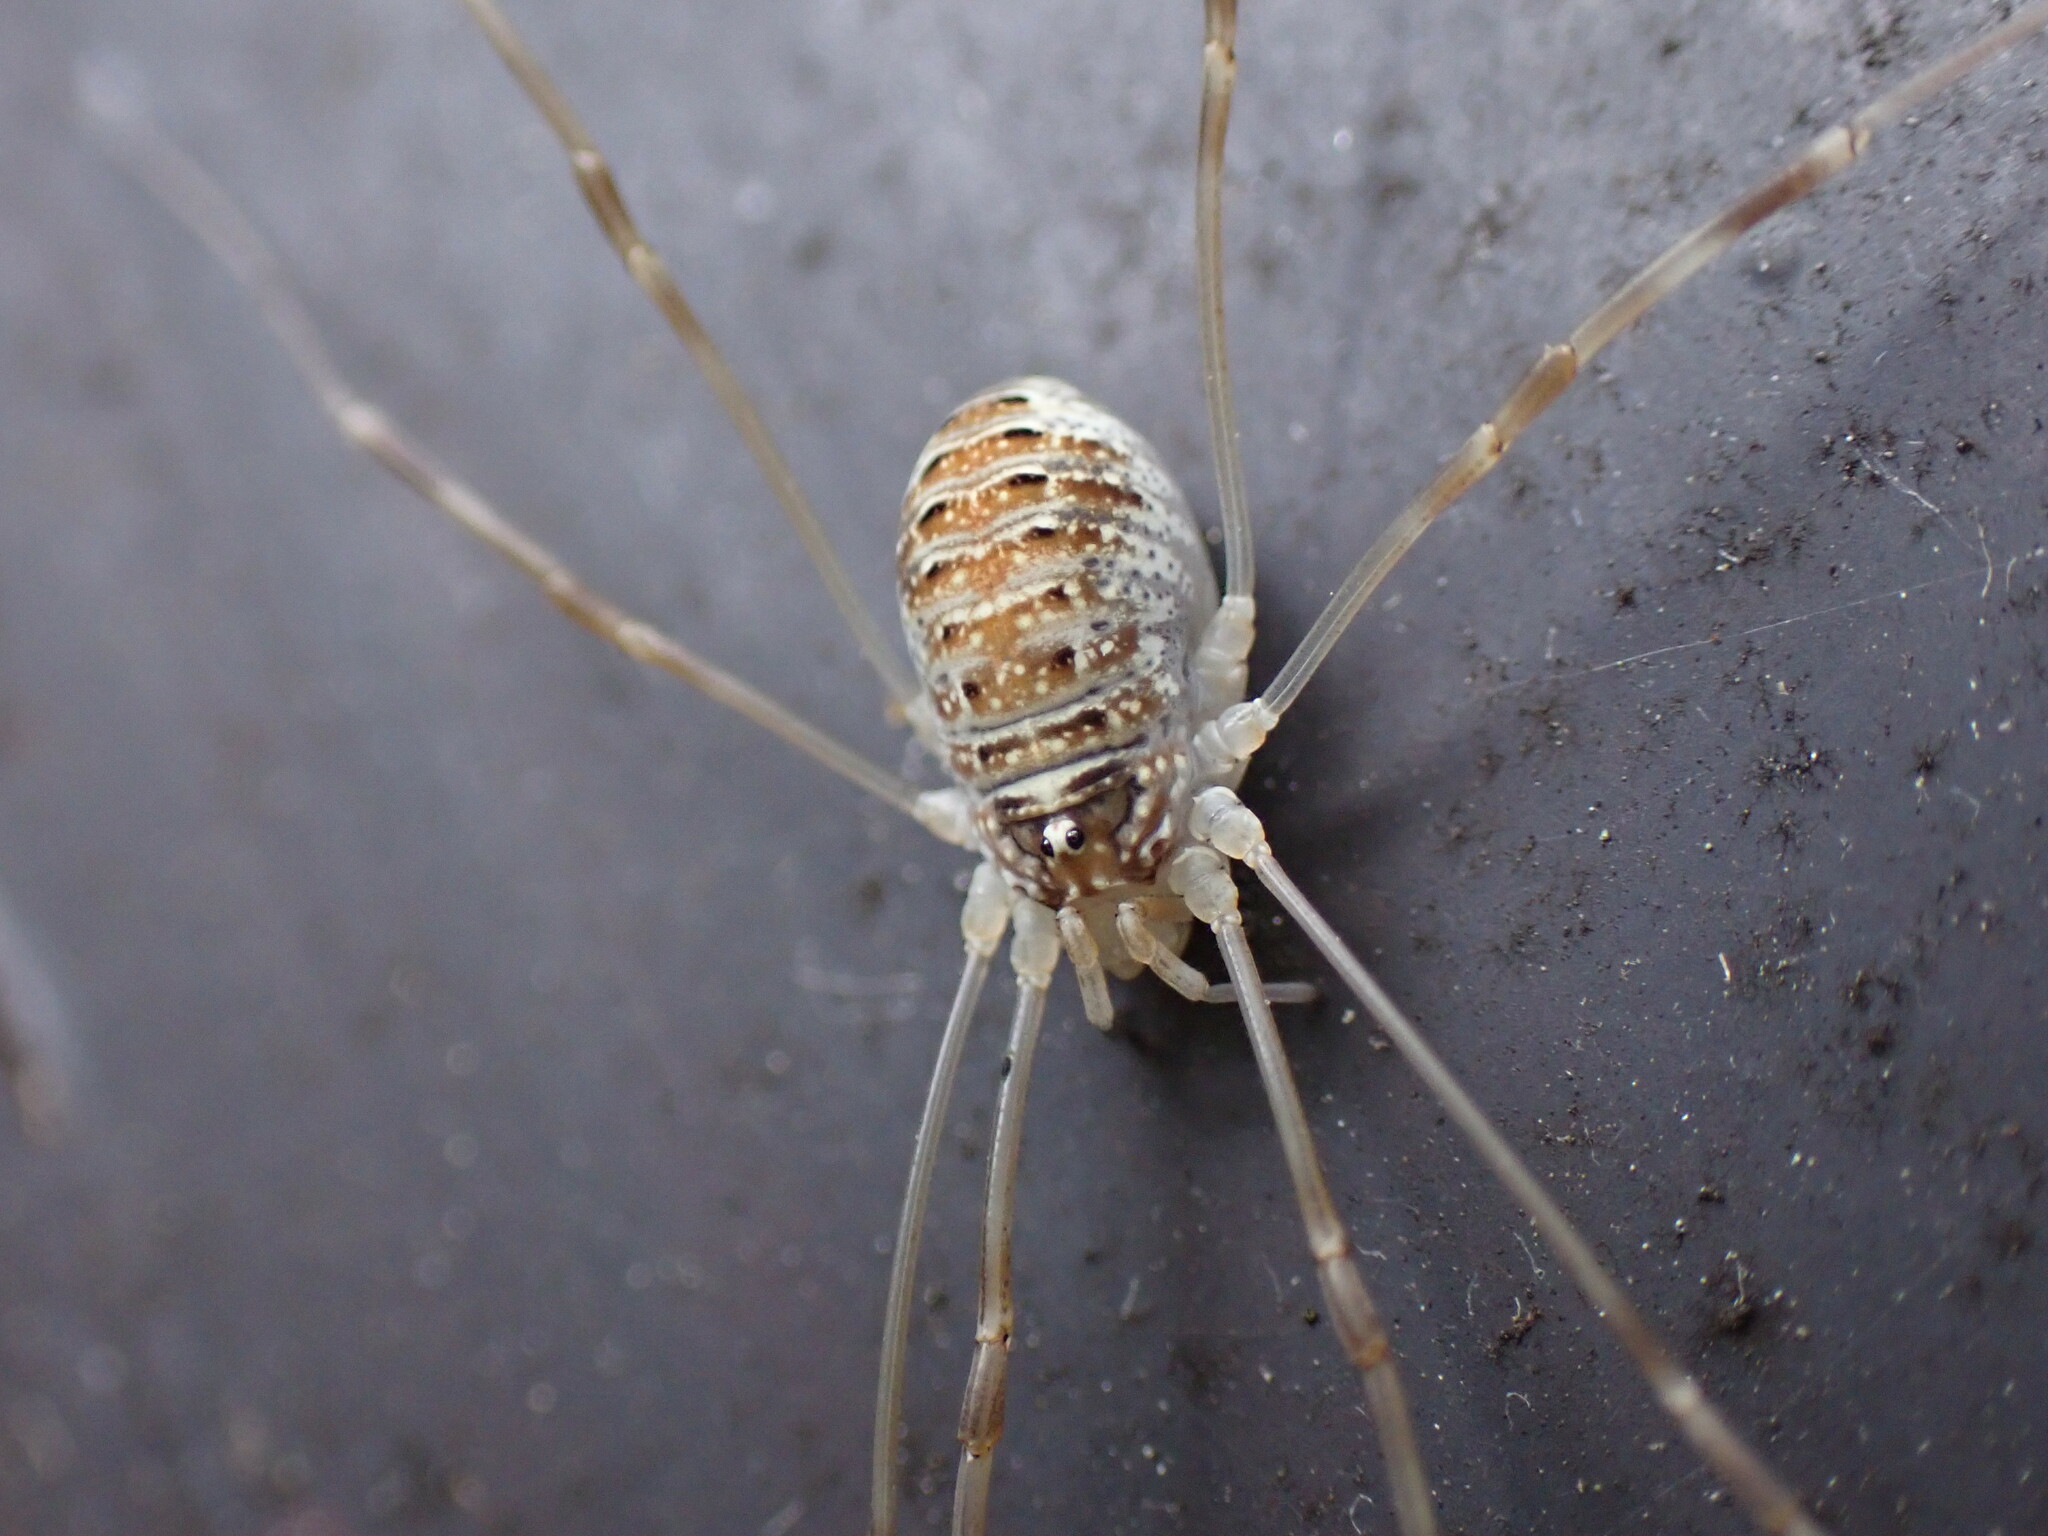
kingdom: Animalia
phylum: Arthropoda
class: Arachnida
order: Opiliones
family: Phalangiidae
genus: Opilio
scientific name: Opilio canestrinii
